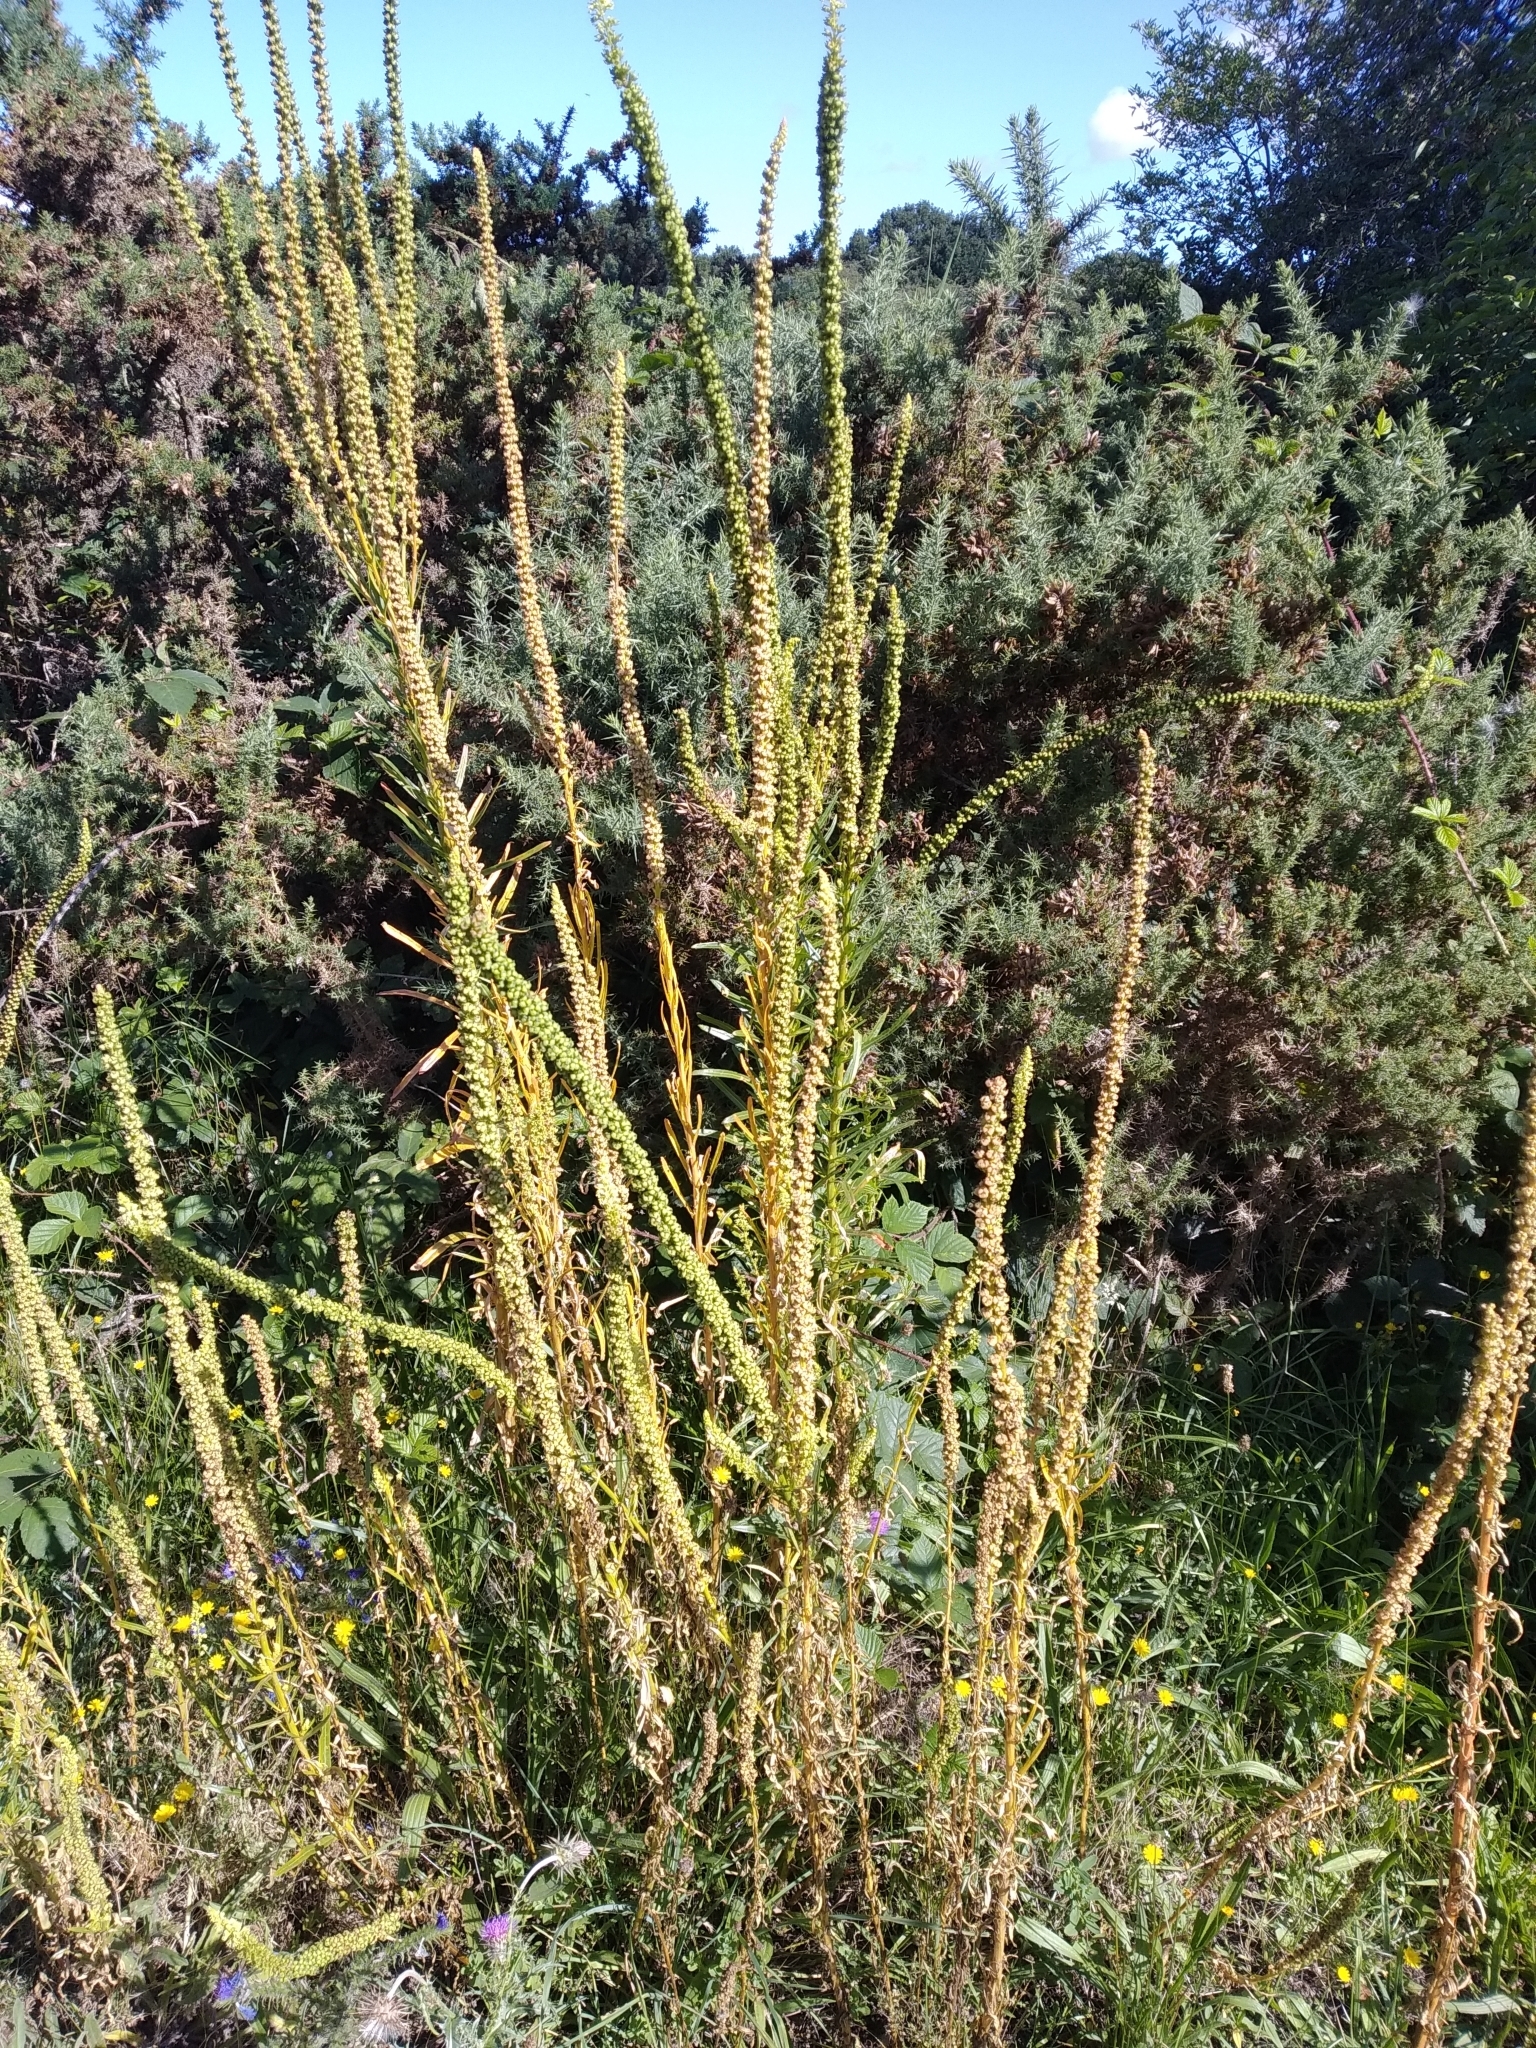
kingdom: Plantae
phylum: Tracheophyta
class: Magnoliopsida
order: Brassicales
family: Resedaceae
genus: Reseda
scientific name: Reseda luteola
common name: Weld
